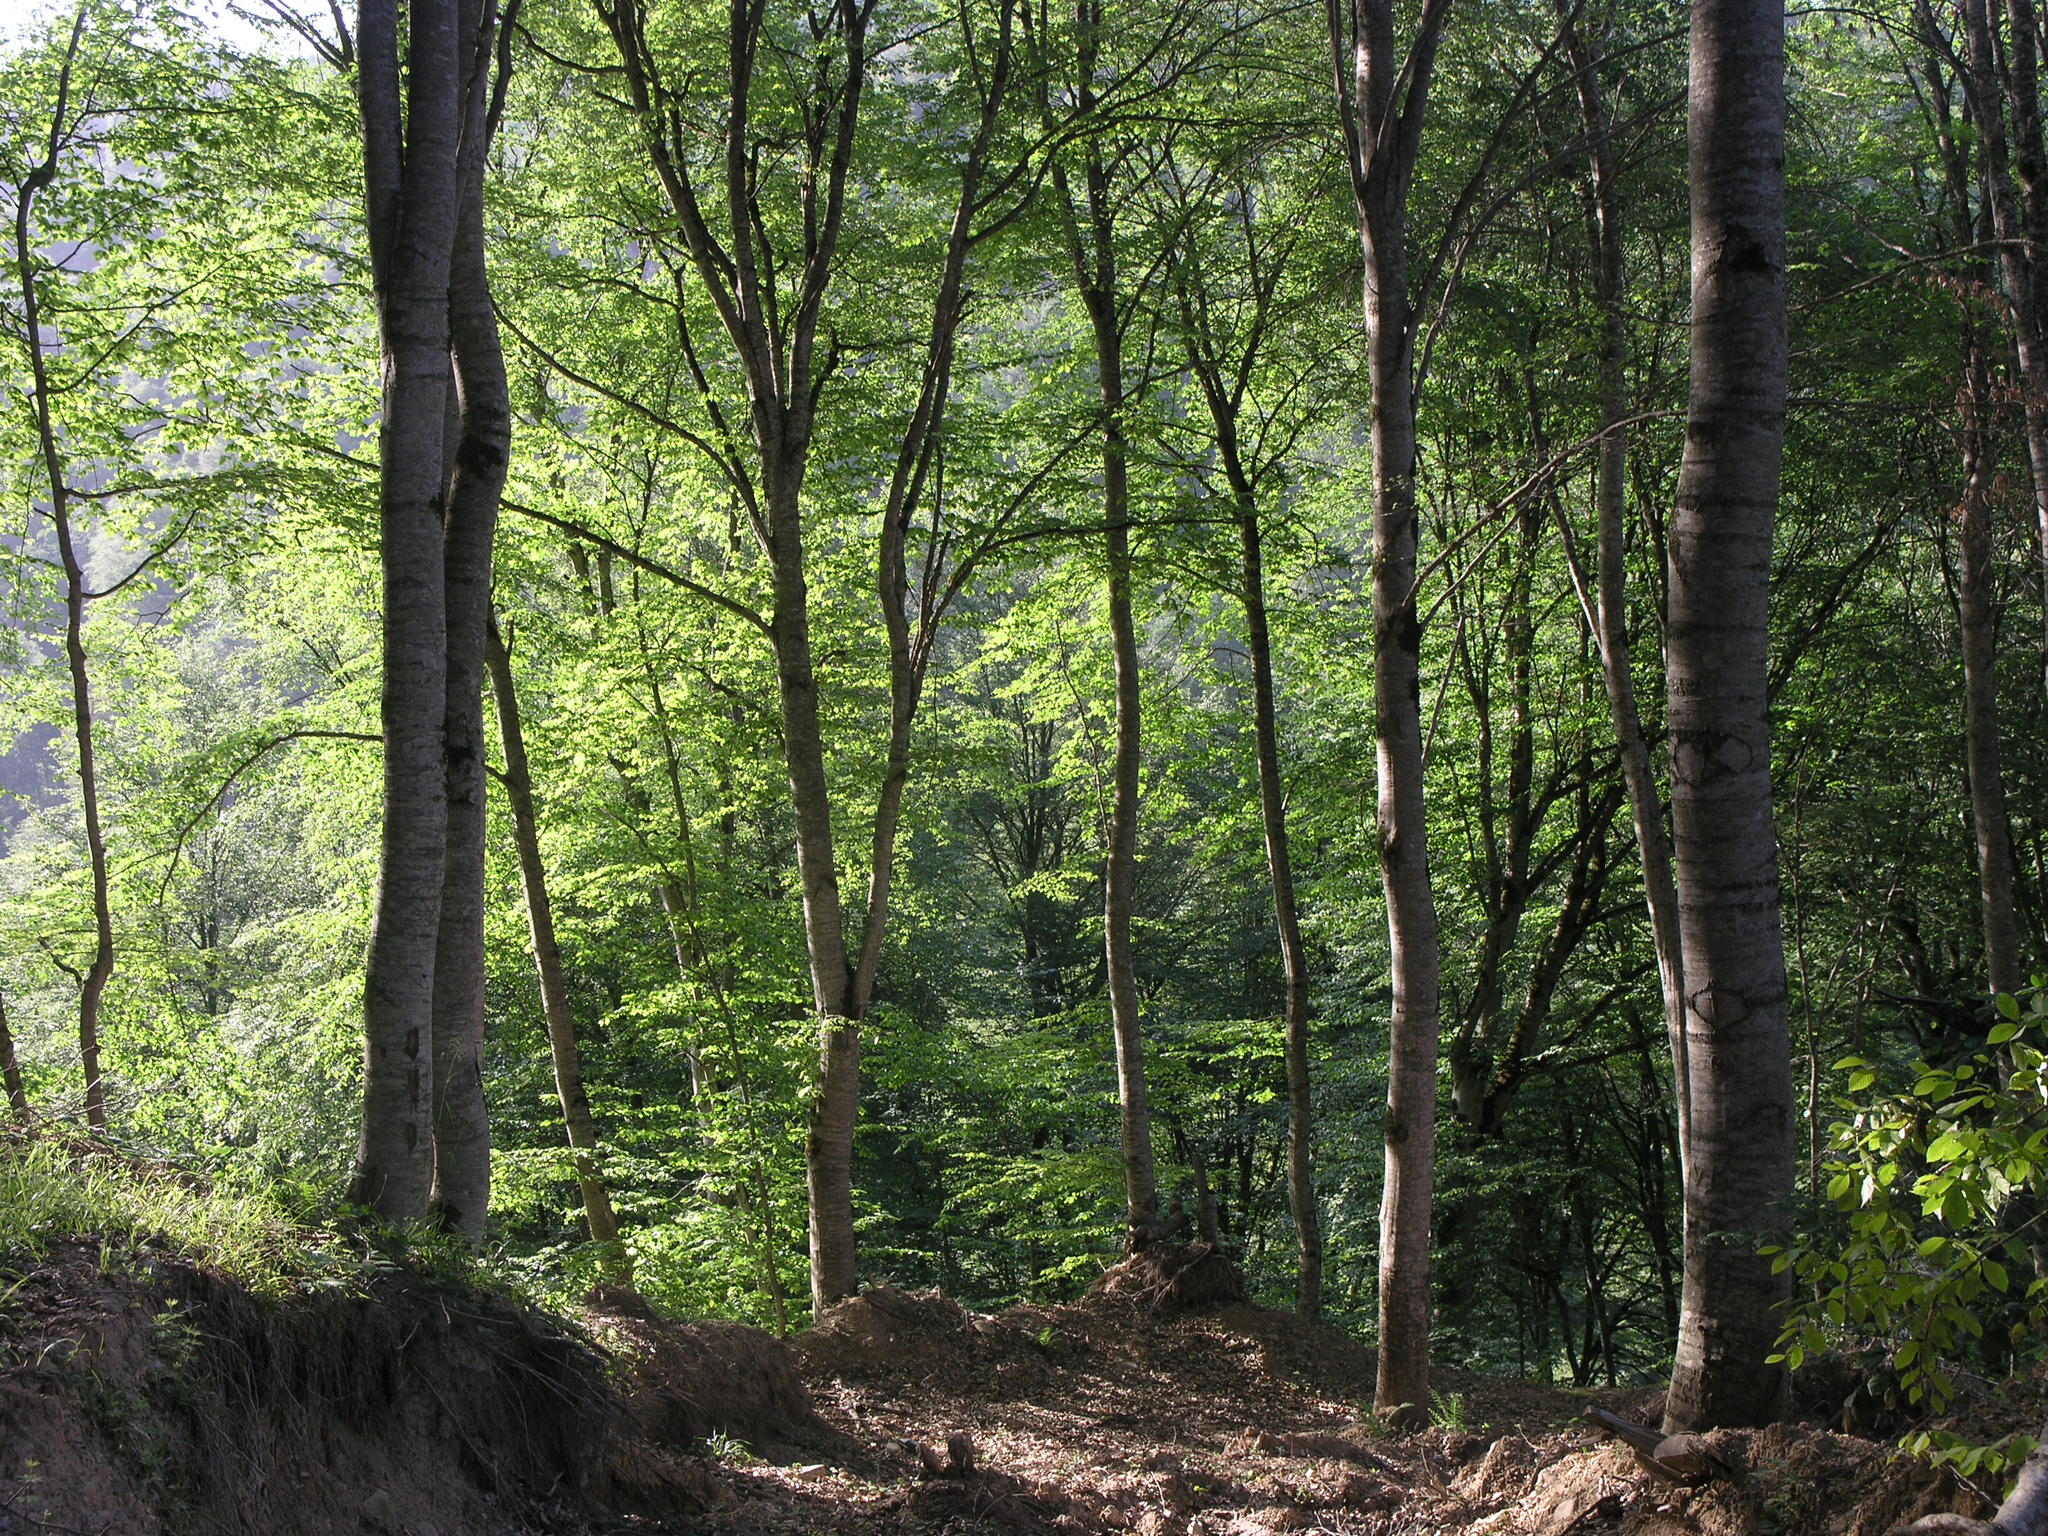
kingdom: Plantae
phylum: Tracheophyta
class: Magnoliopsida
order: Fagales
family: Fagaceae
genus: Fagus
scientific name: Fagus orientalis
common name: Oriental beech
